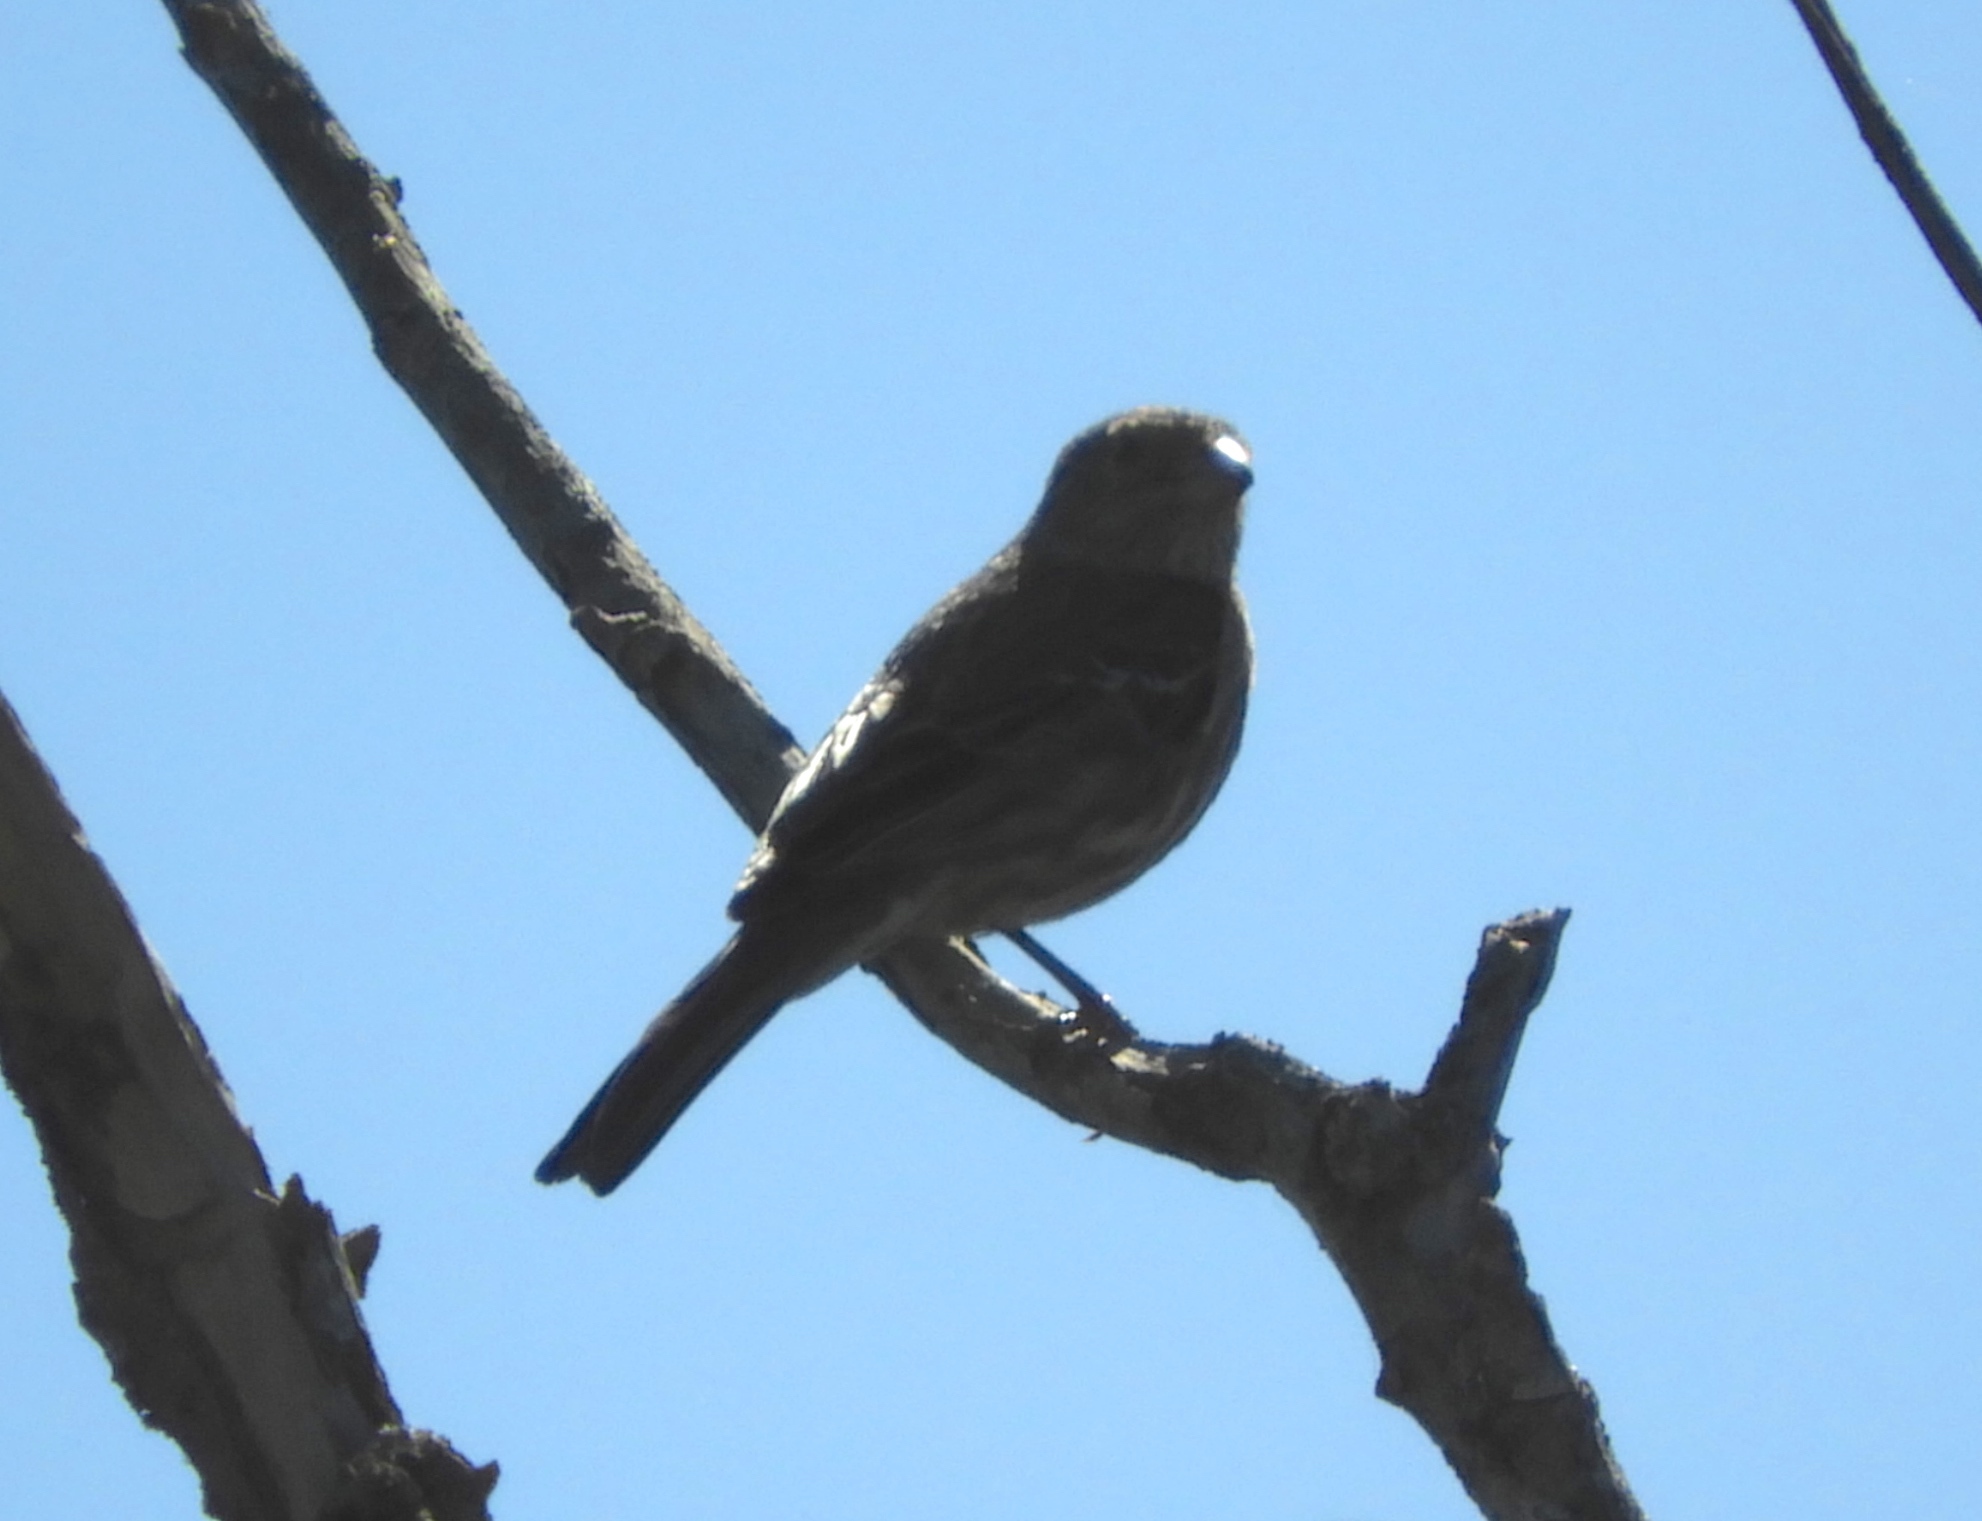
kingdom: Animalia
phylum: Chordata
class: Aves
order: Passeriformes
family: Fringillidae
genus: Haemorhous
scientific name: Haemorhous mexicanus
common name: House finch
